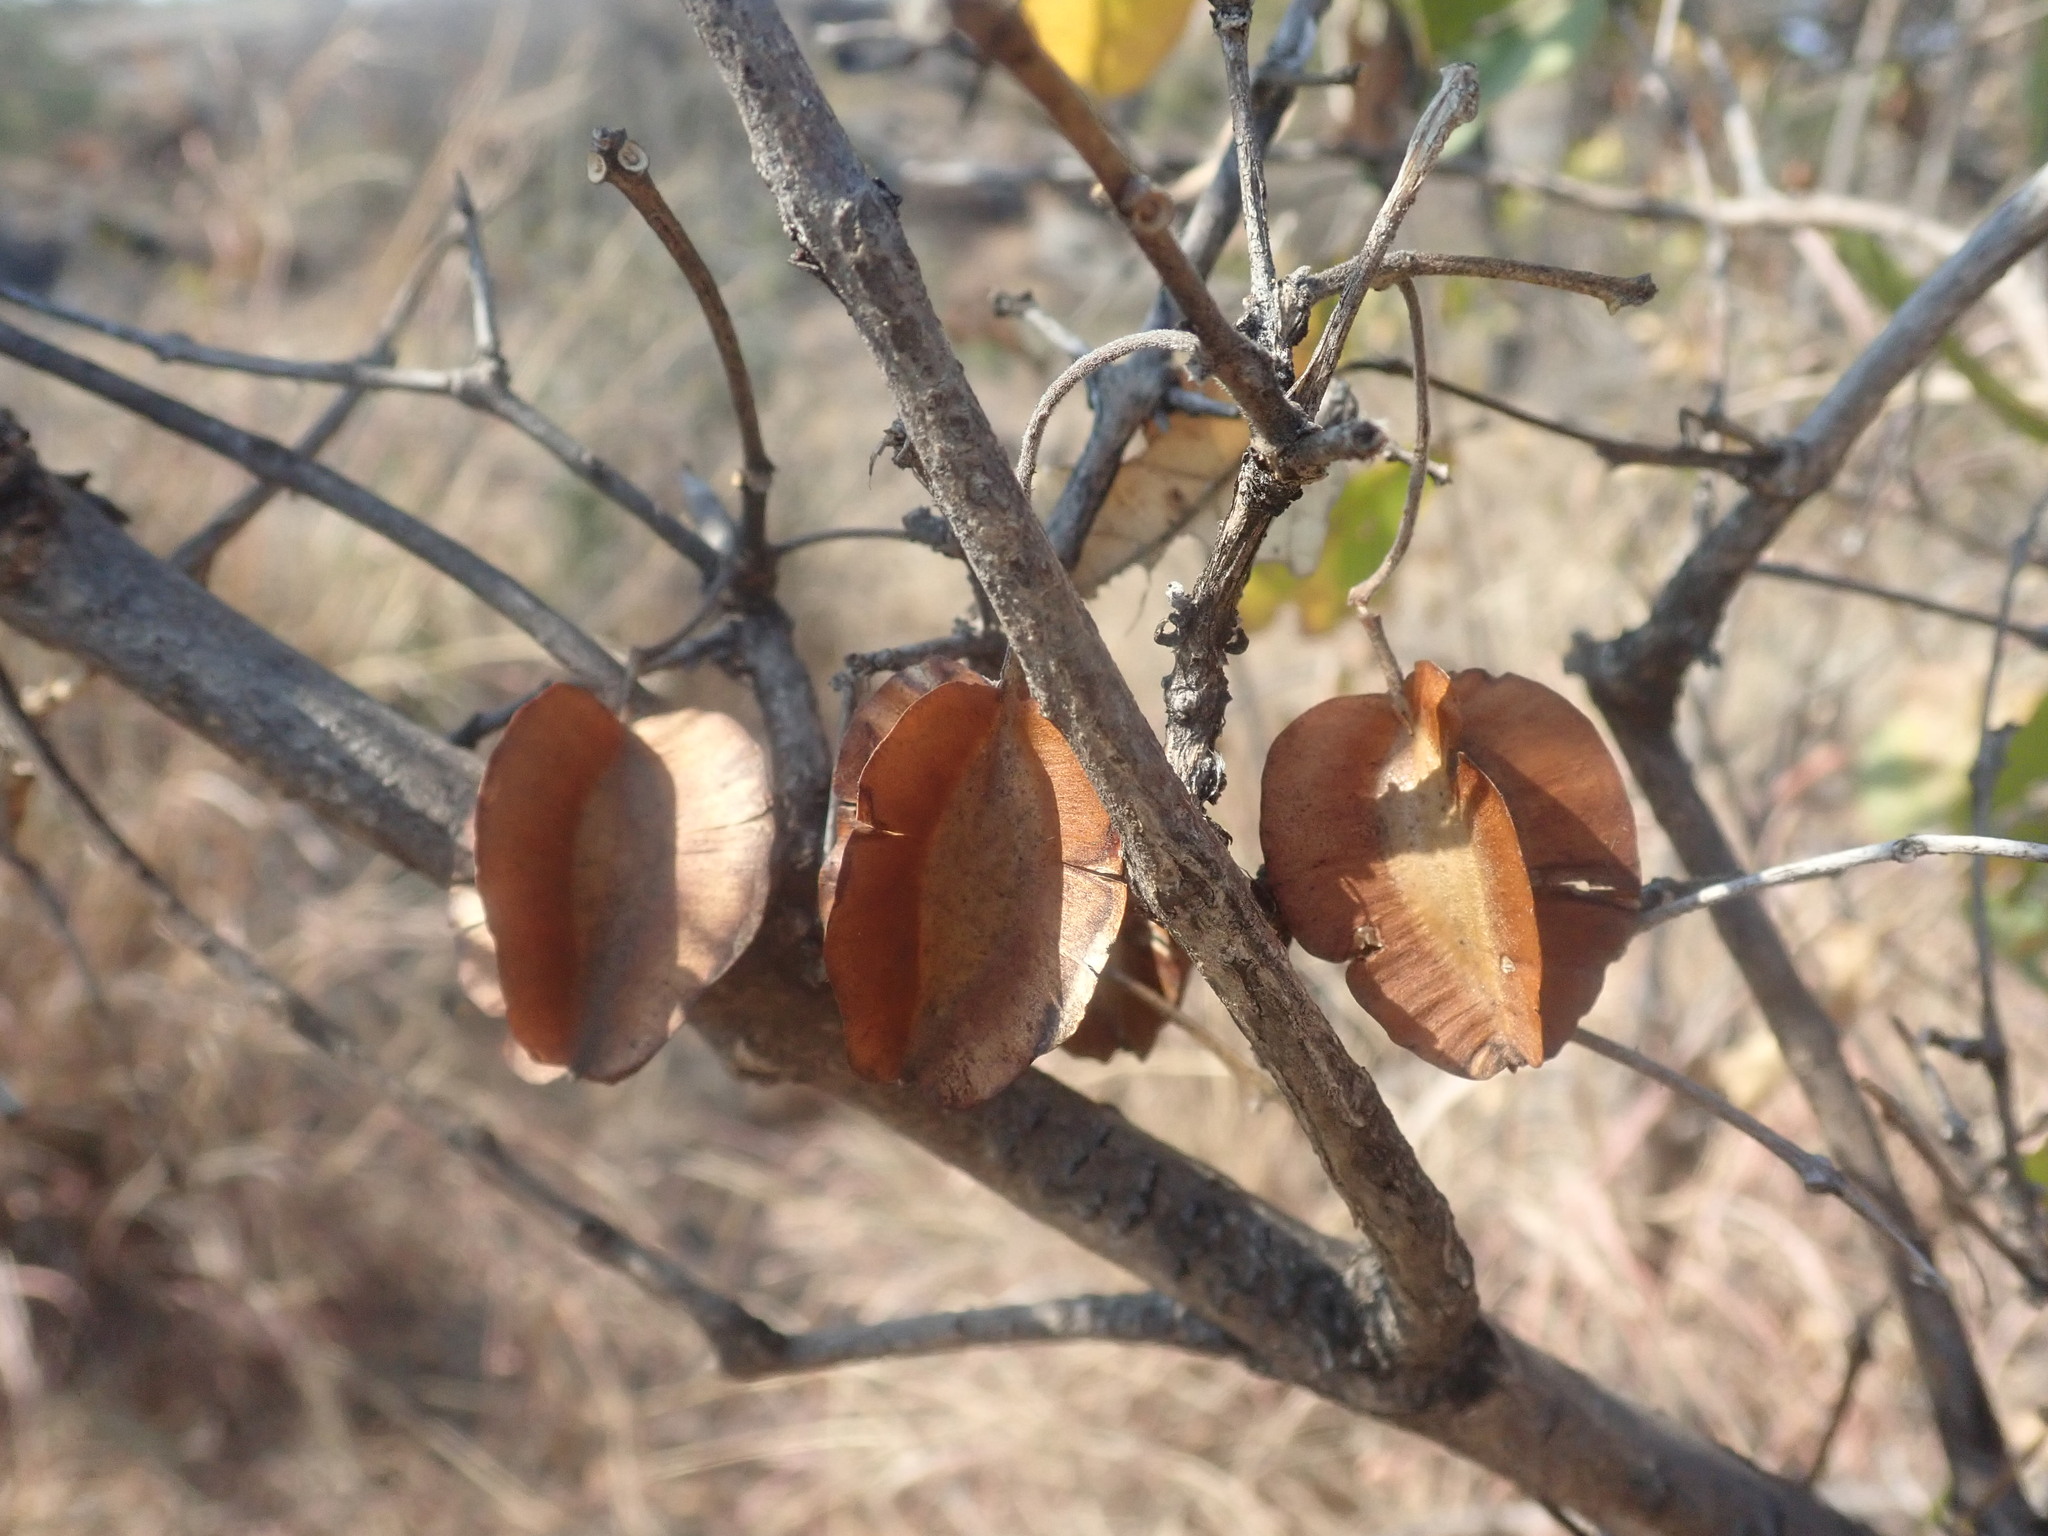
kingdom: Plantae
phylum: Tracheophyta
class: Magnoliopsida
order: Myrtales
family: Combretaceae
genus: Combretum
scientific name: Combretum apiculatum
